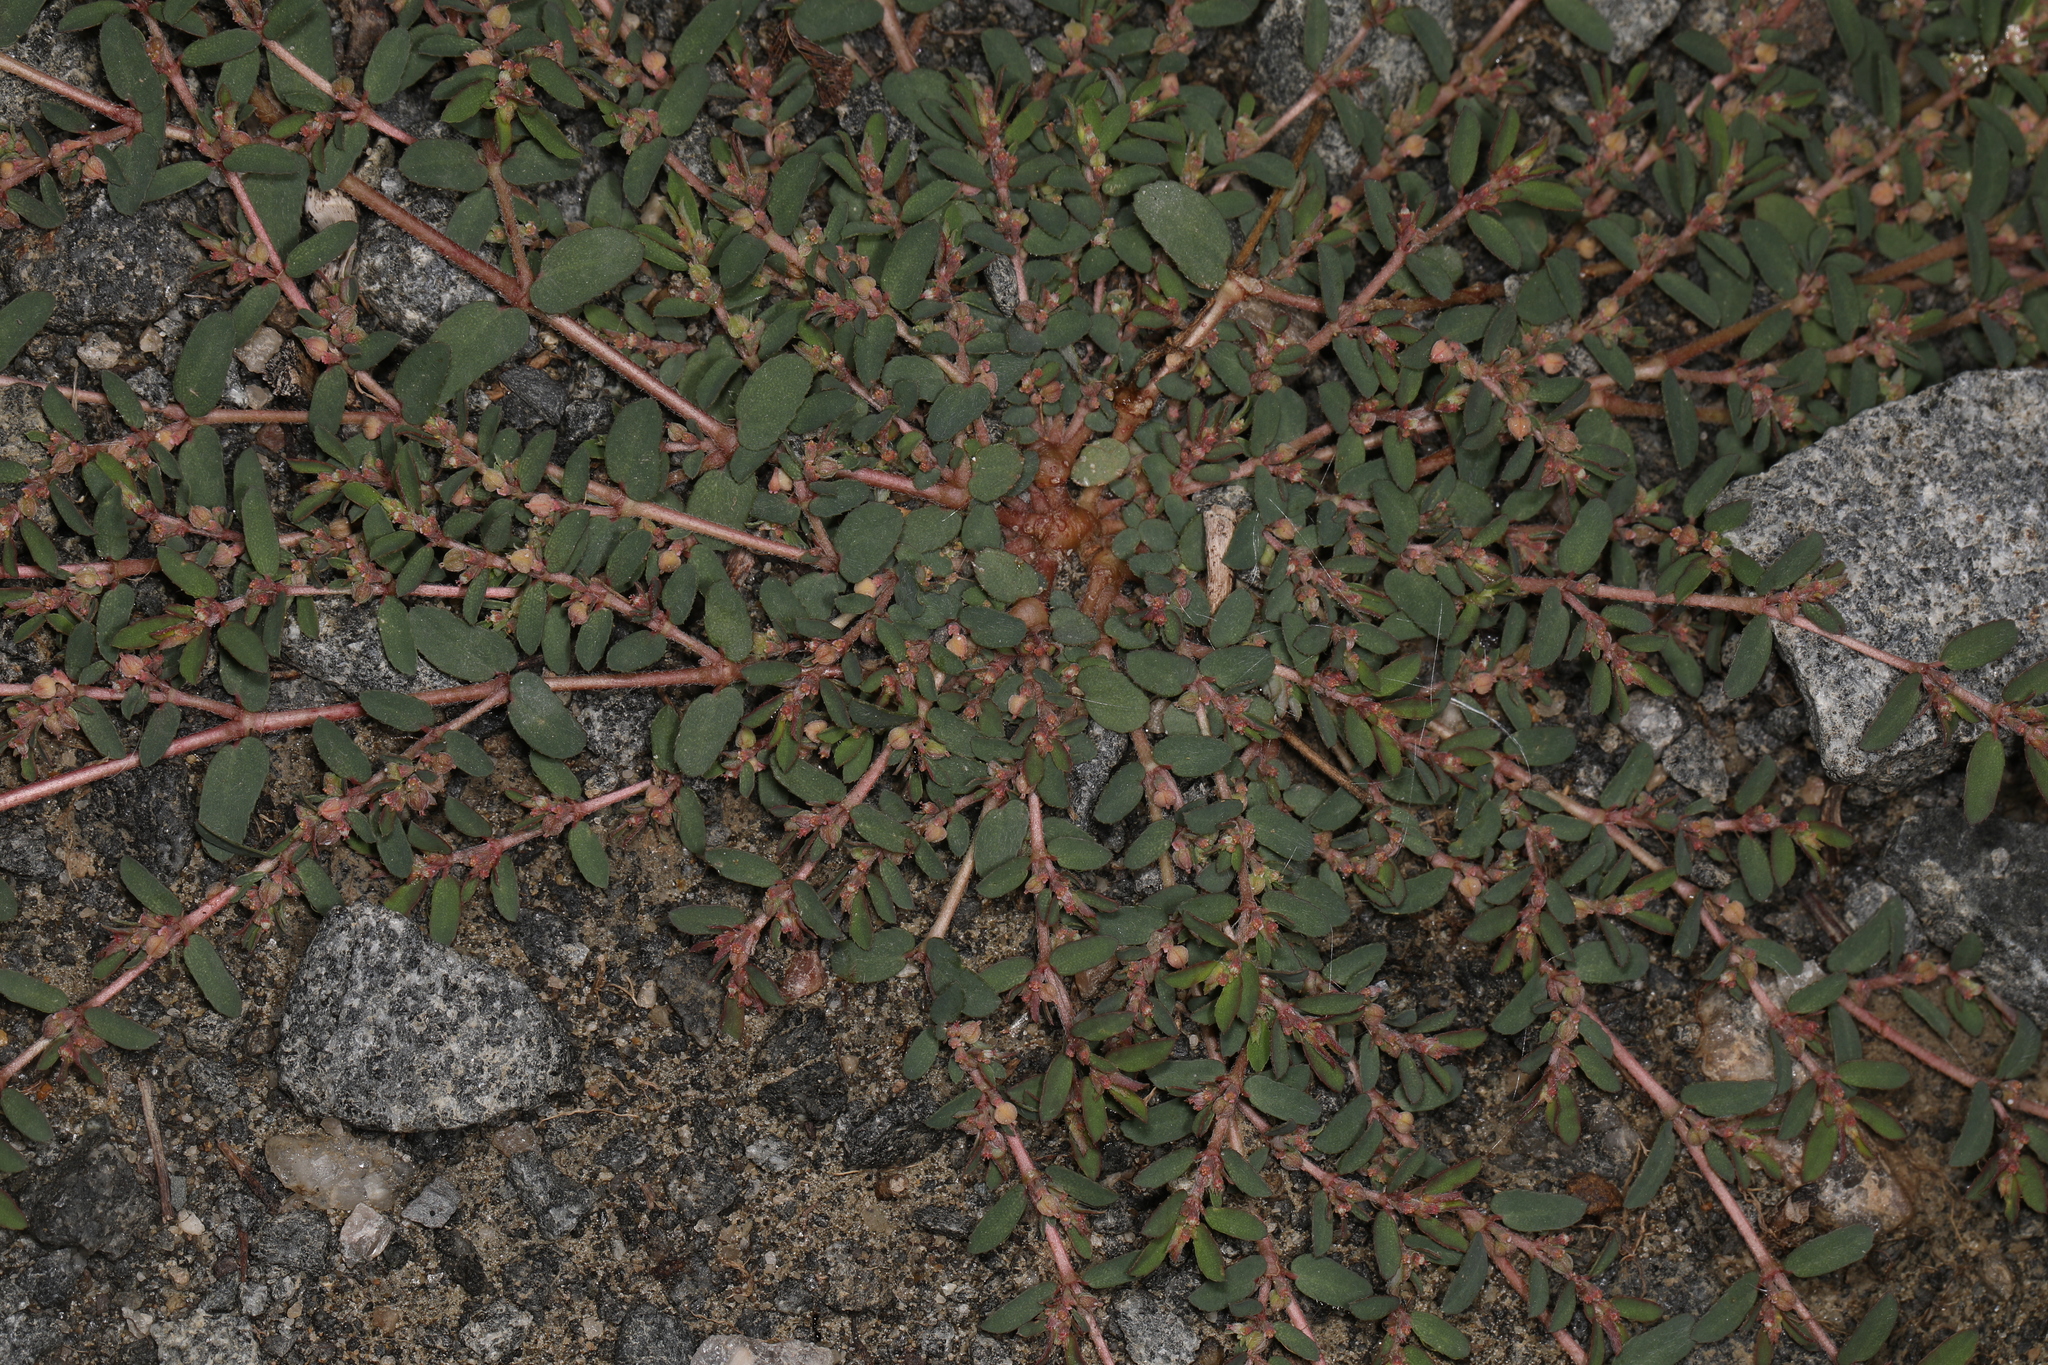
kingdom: Plantae
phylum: Tracheophyta
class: Magnoliopsida
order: Malpighiales
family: Euphorbiaceae
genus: Euphorbia
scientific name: Euphorbia maculata
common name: Spotted spurge
